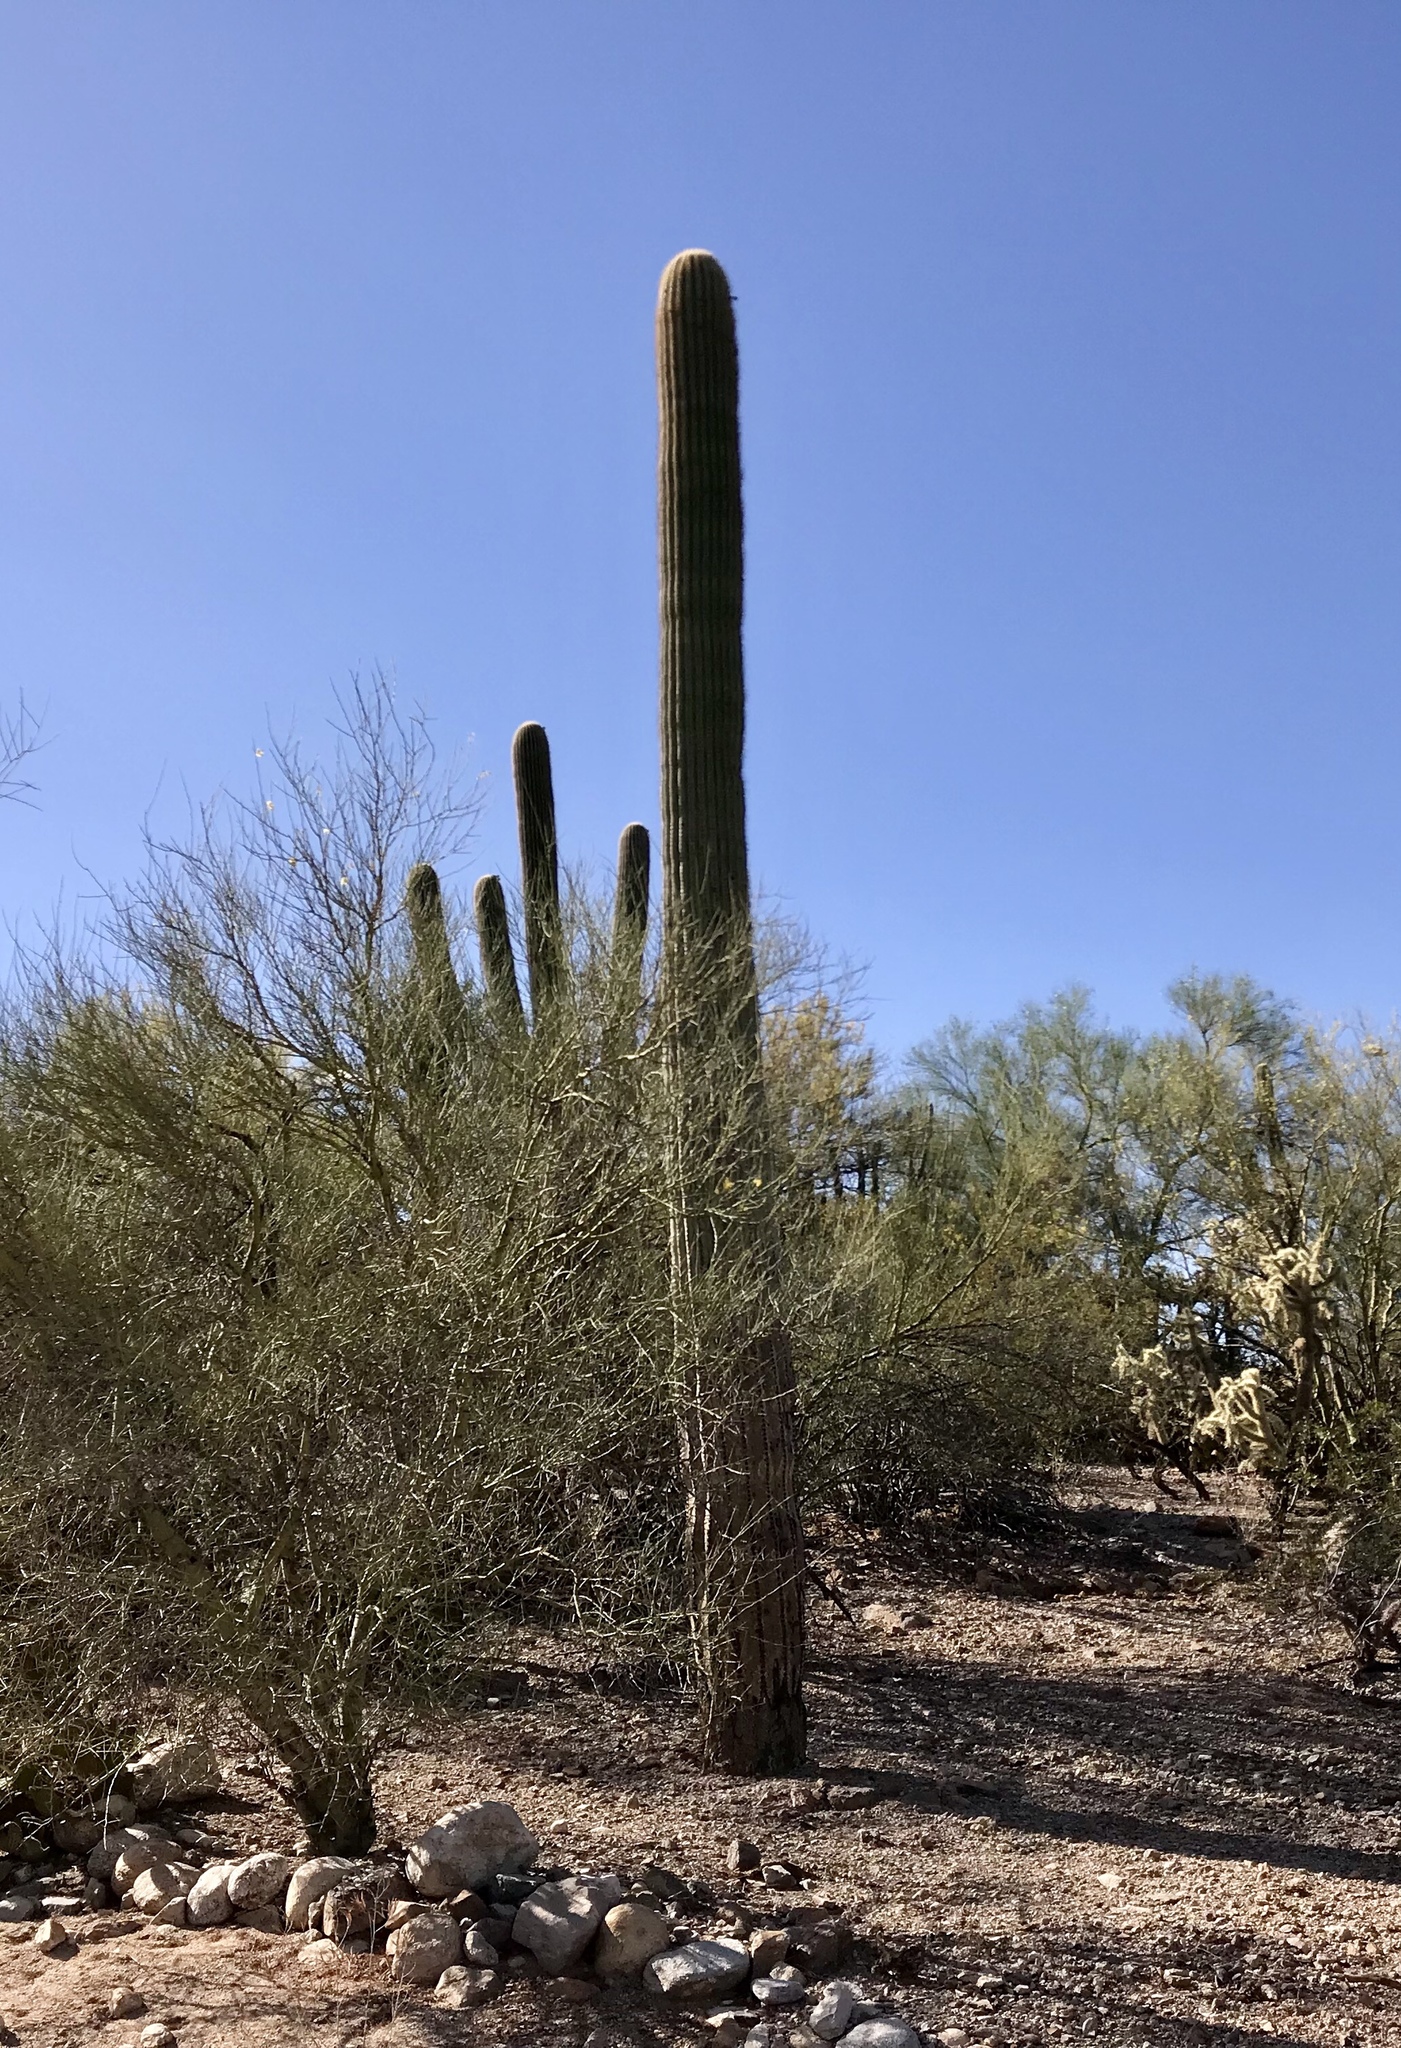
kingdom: Plantae
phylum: Tracheophyta
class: Magnoliopsida
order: Caryophyllales
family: Cactaceae
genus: Carnegiea
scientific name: Carnegiea gigantea
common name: Saguaro
